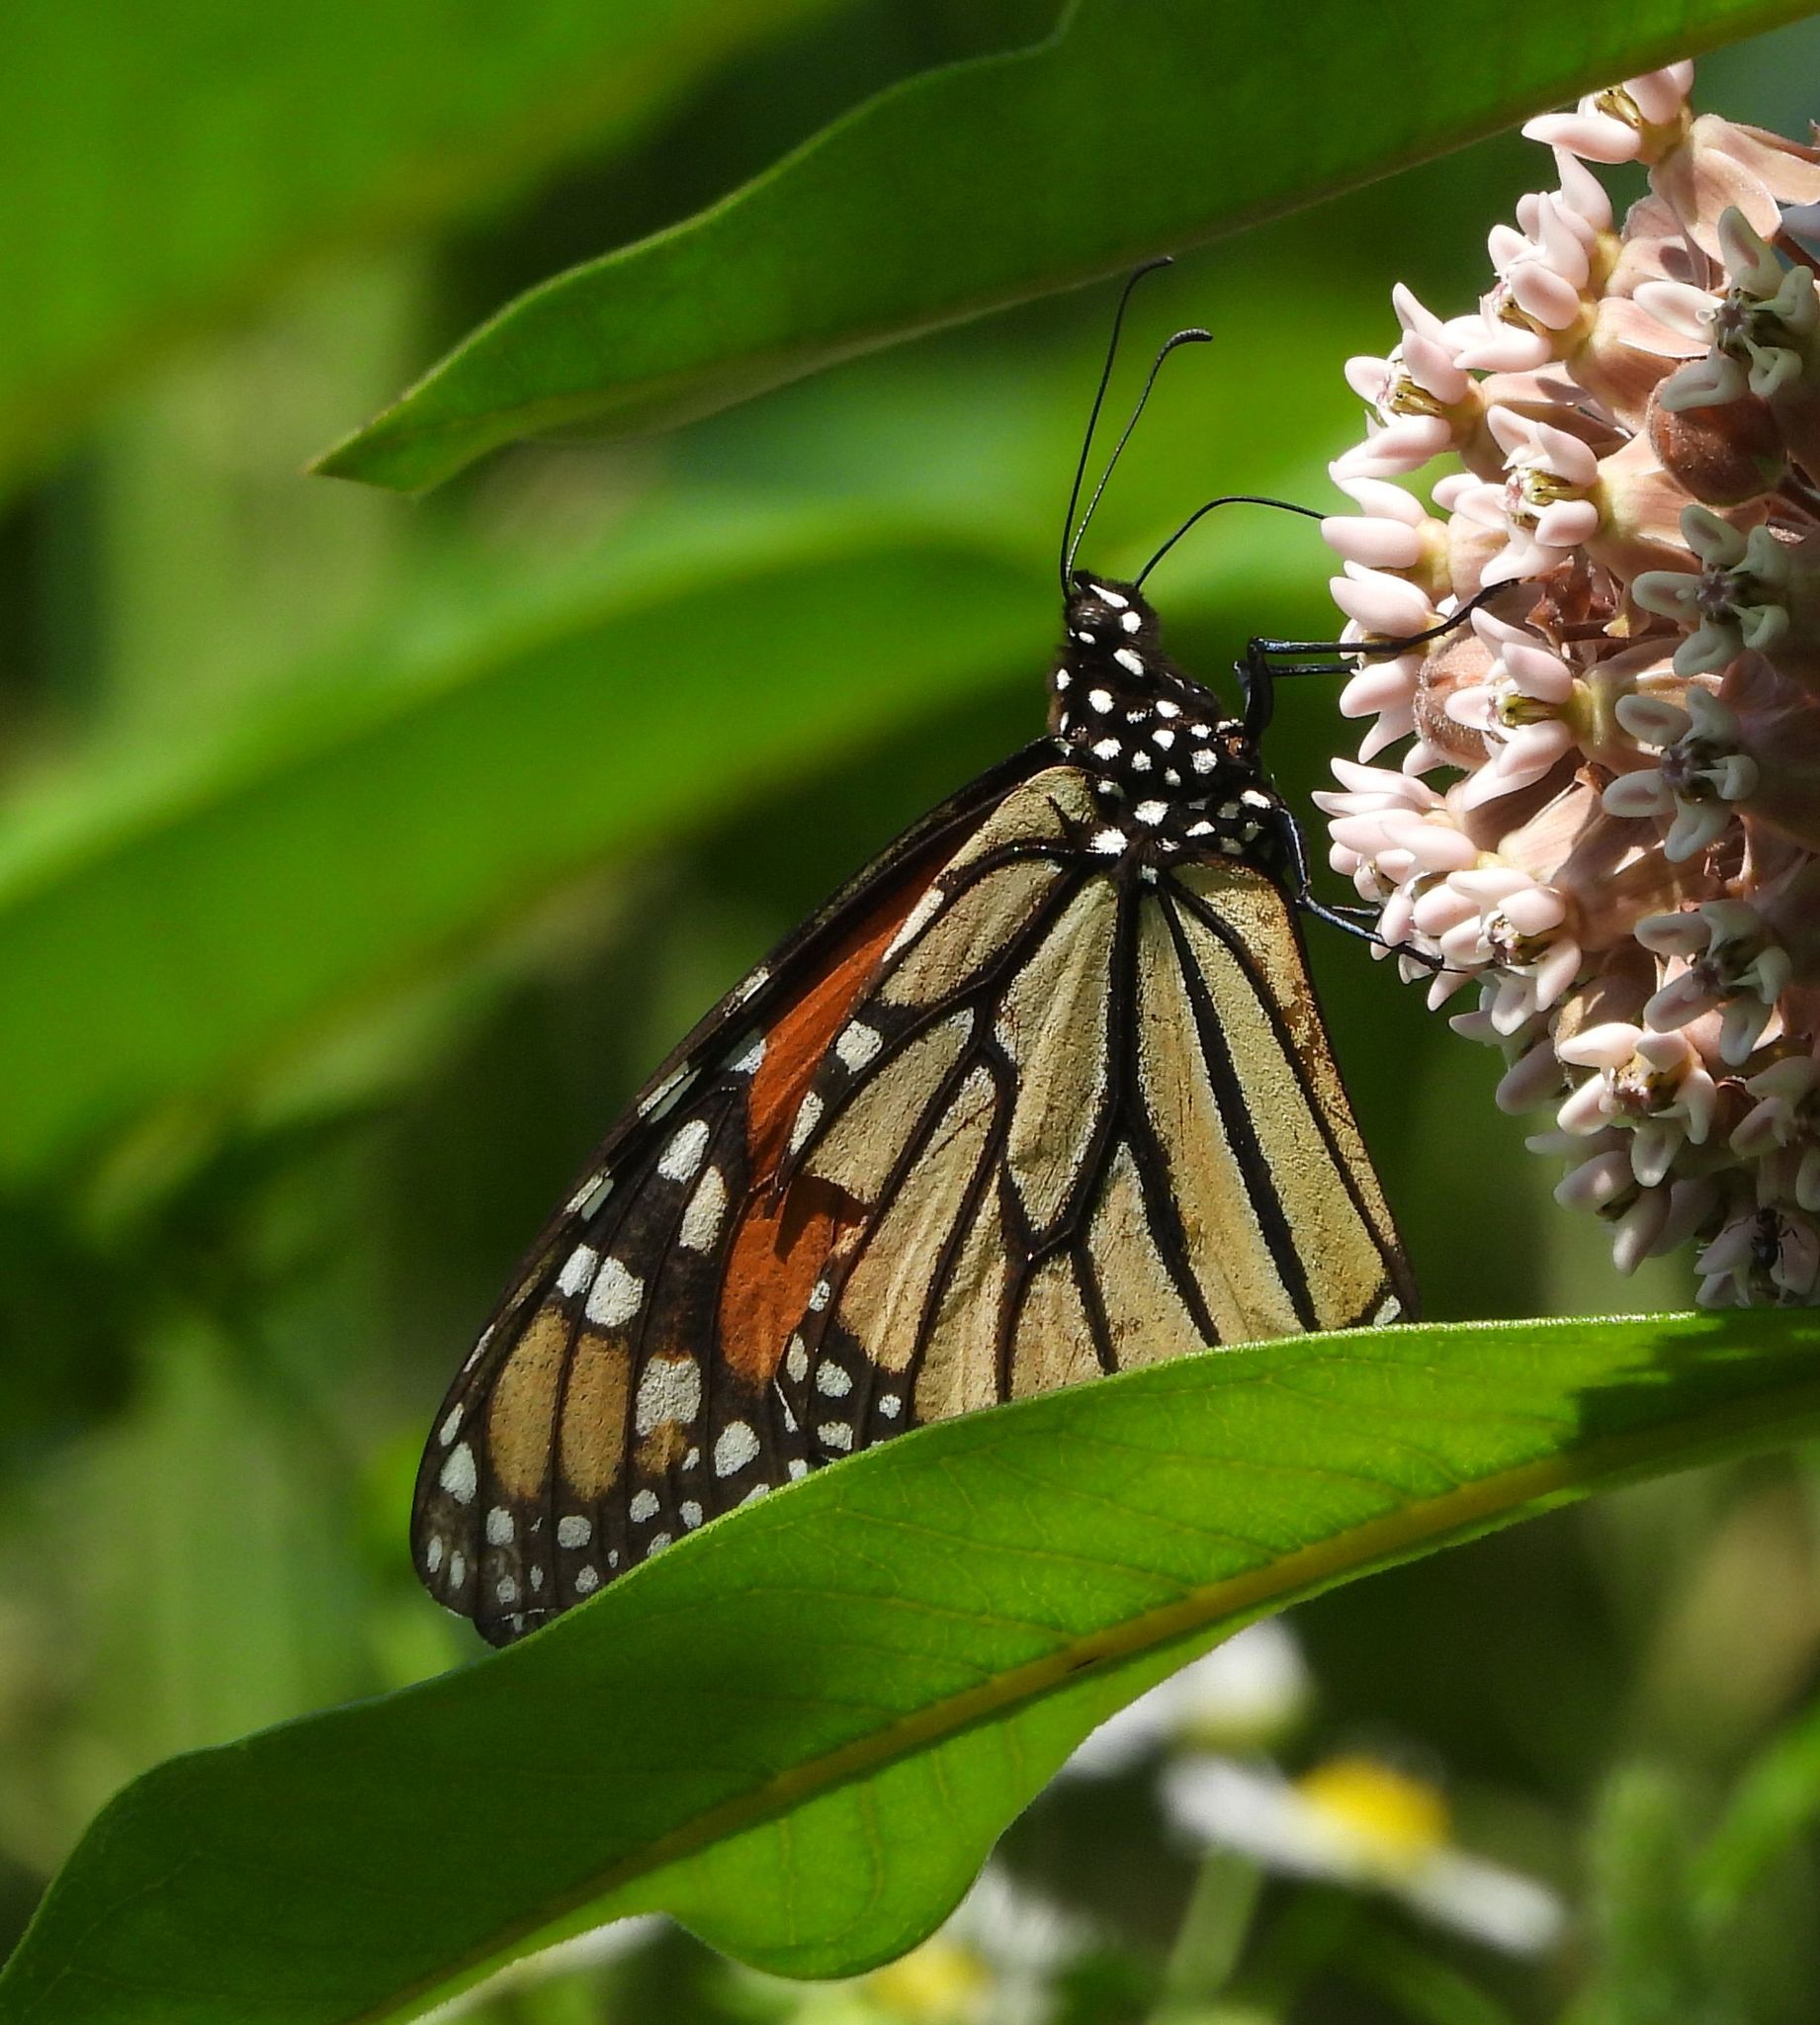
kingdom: Animalia
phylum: Arthropoda
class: Insecta
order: Lepidoptera
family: Nymphalidae
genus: Danaus
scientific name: Danaus plexippus
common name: Monarch
